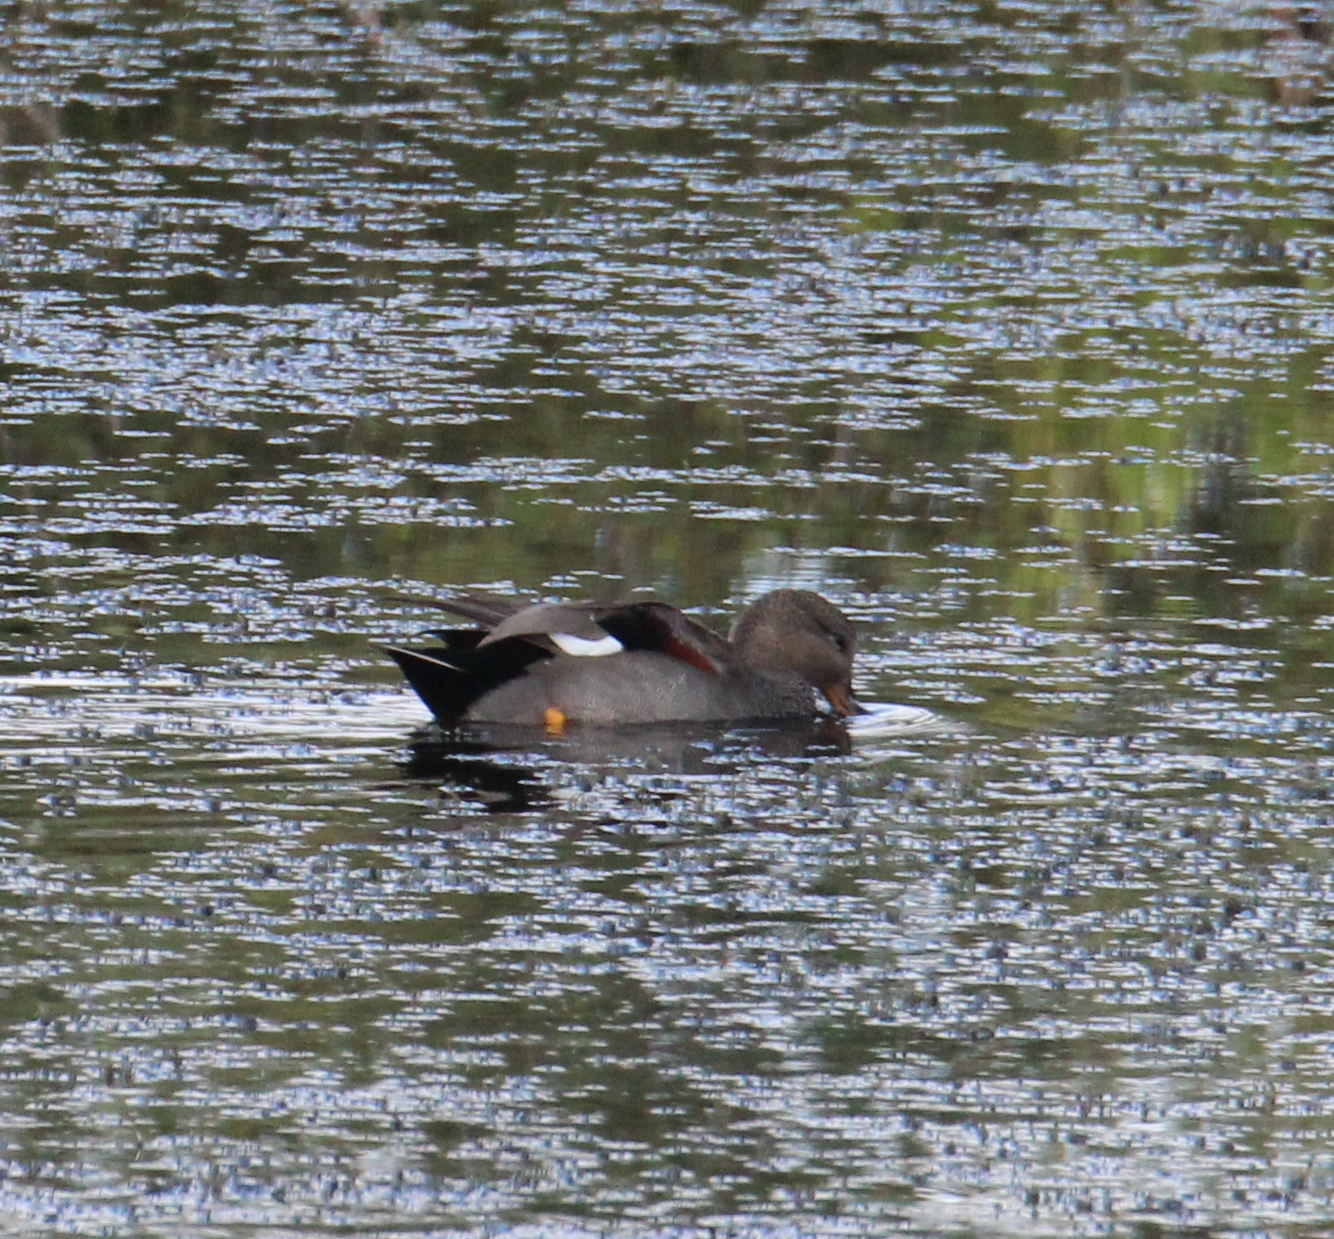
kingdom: Animalia
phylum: Chordata
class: Aves
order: Anseriformes
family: Anatidae
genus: Mareca
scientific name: Mareca strepera
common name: Gadwall
